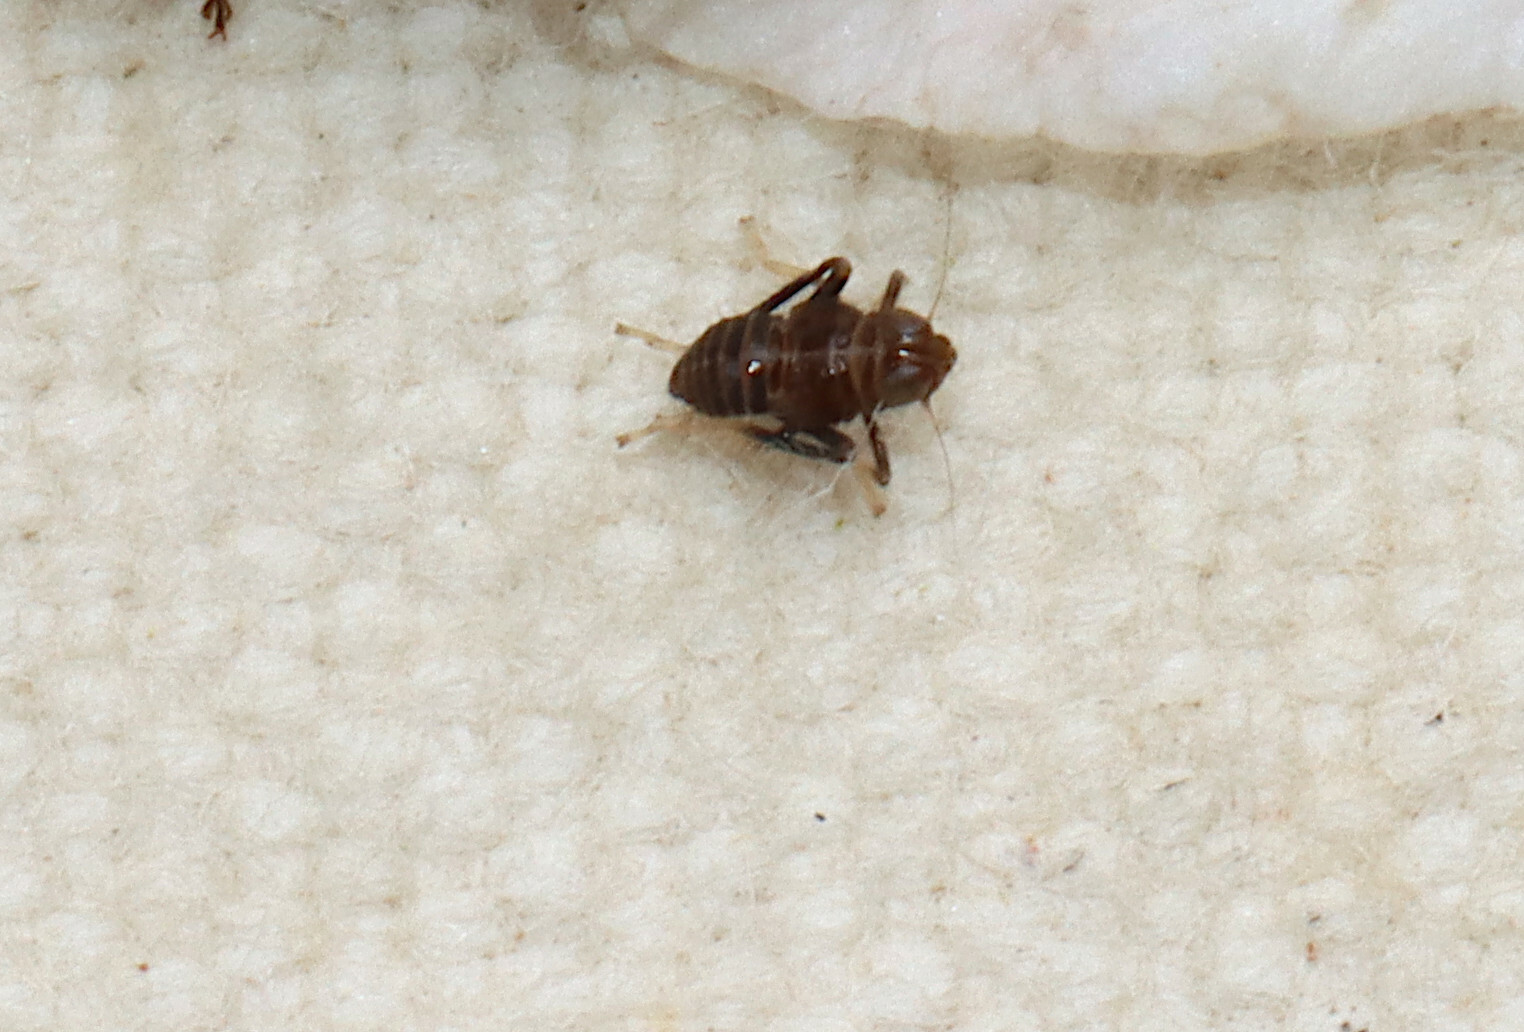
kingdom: Animalia
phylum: Arthropoda
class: Insecta
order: Hemiptera
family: Cicadellidae
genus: Jikradia
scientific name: Jikradia olitoria
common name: Coppery leafhopper
